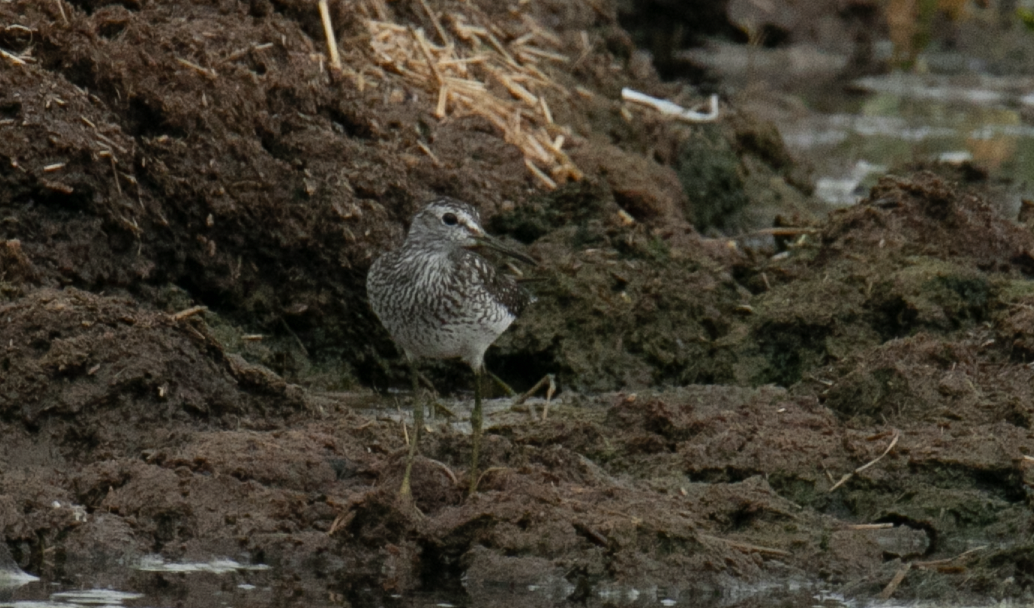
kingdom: Animalia
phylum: Chordata
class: Aves
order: Charadriiformes
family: Scolopacidae
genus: Tringa
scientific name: Tringa glareola
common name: Wood sandpiper
